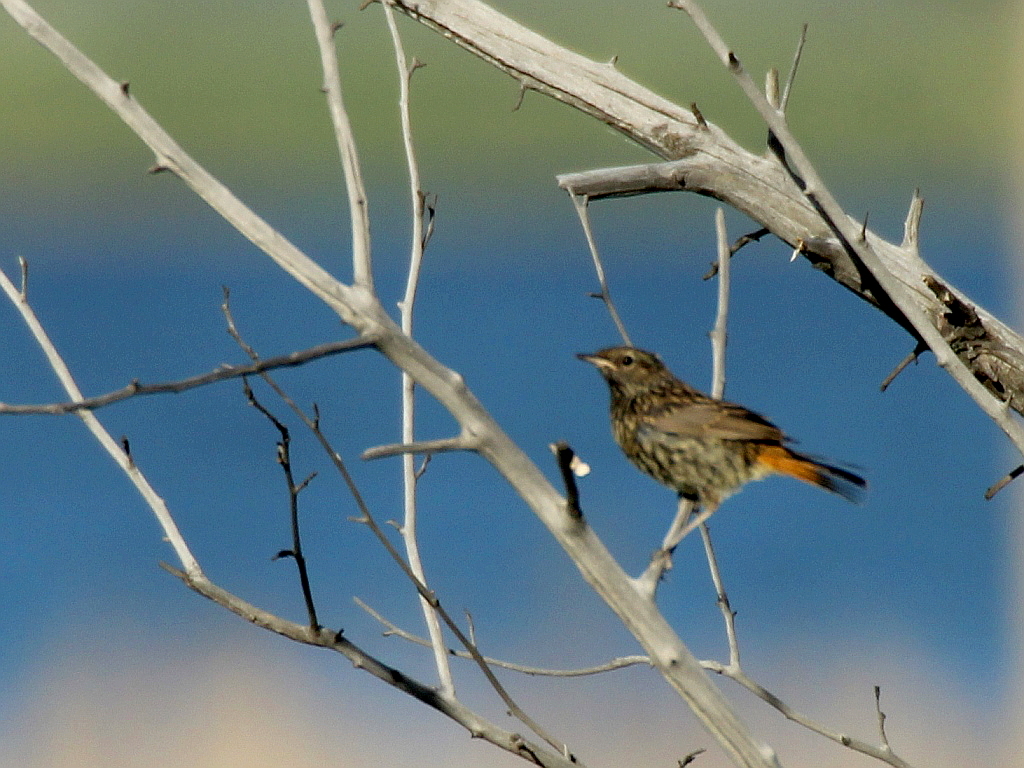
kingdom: Animalia
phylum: Chordata
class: Aves
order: Passeriformes
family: Muscicapidae
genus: Luscinia
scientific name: Luscinia svecica
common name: Bluethroat
